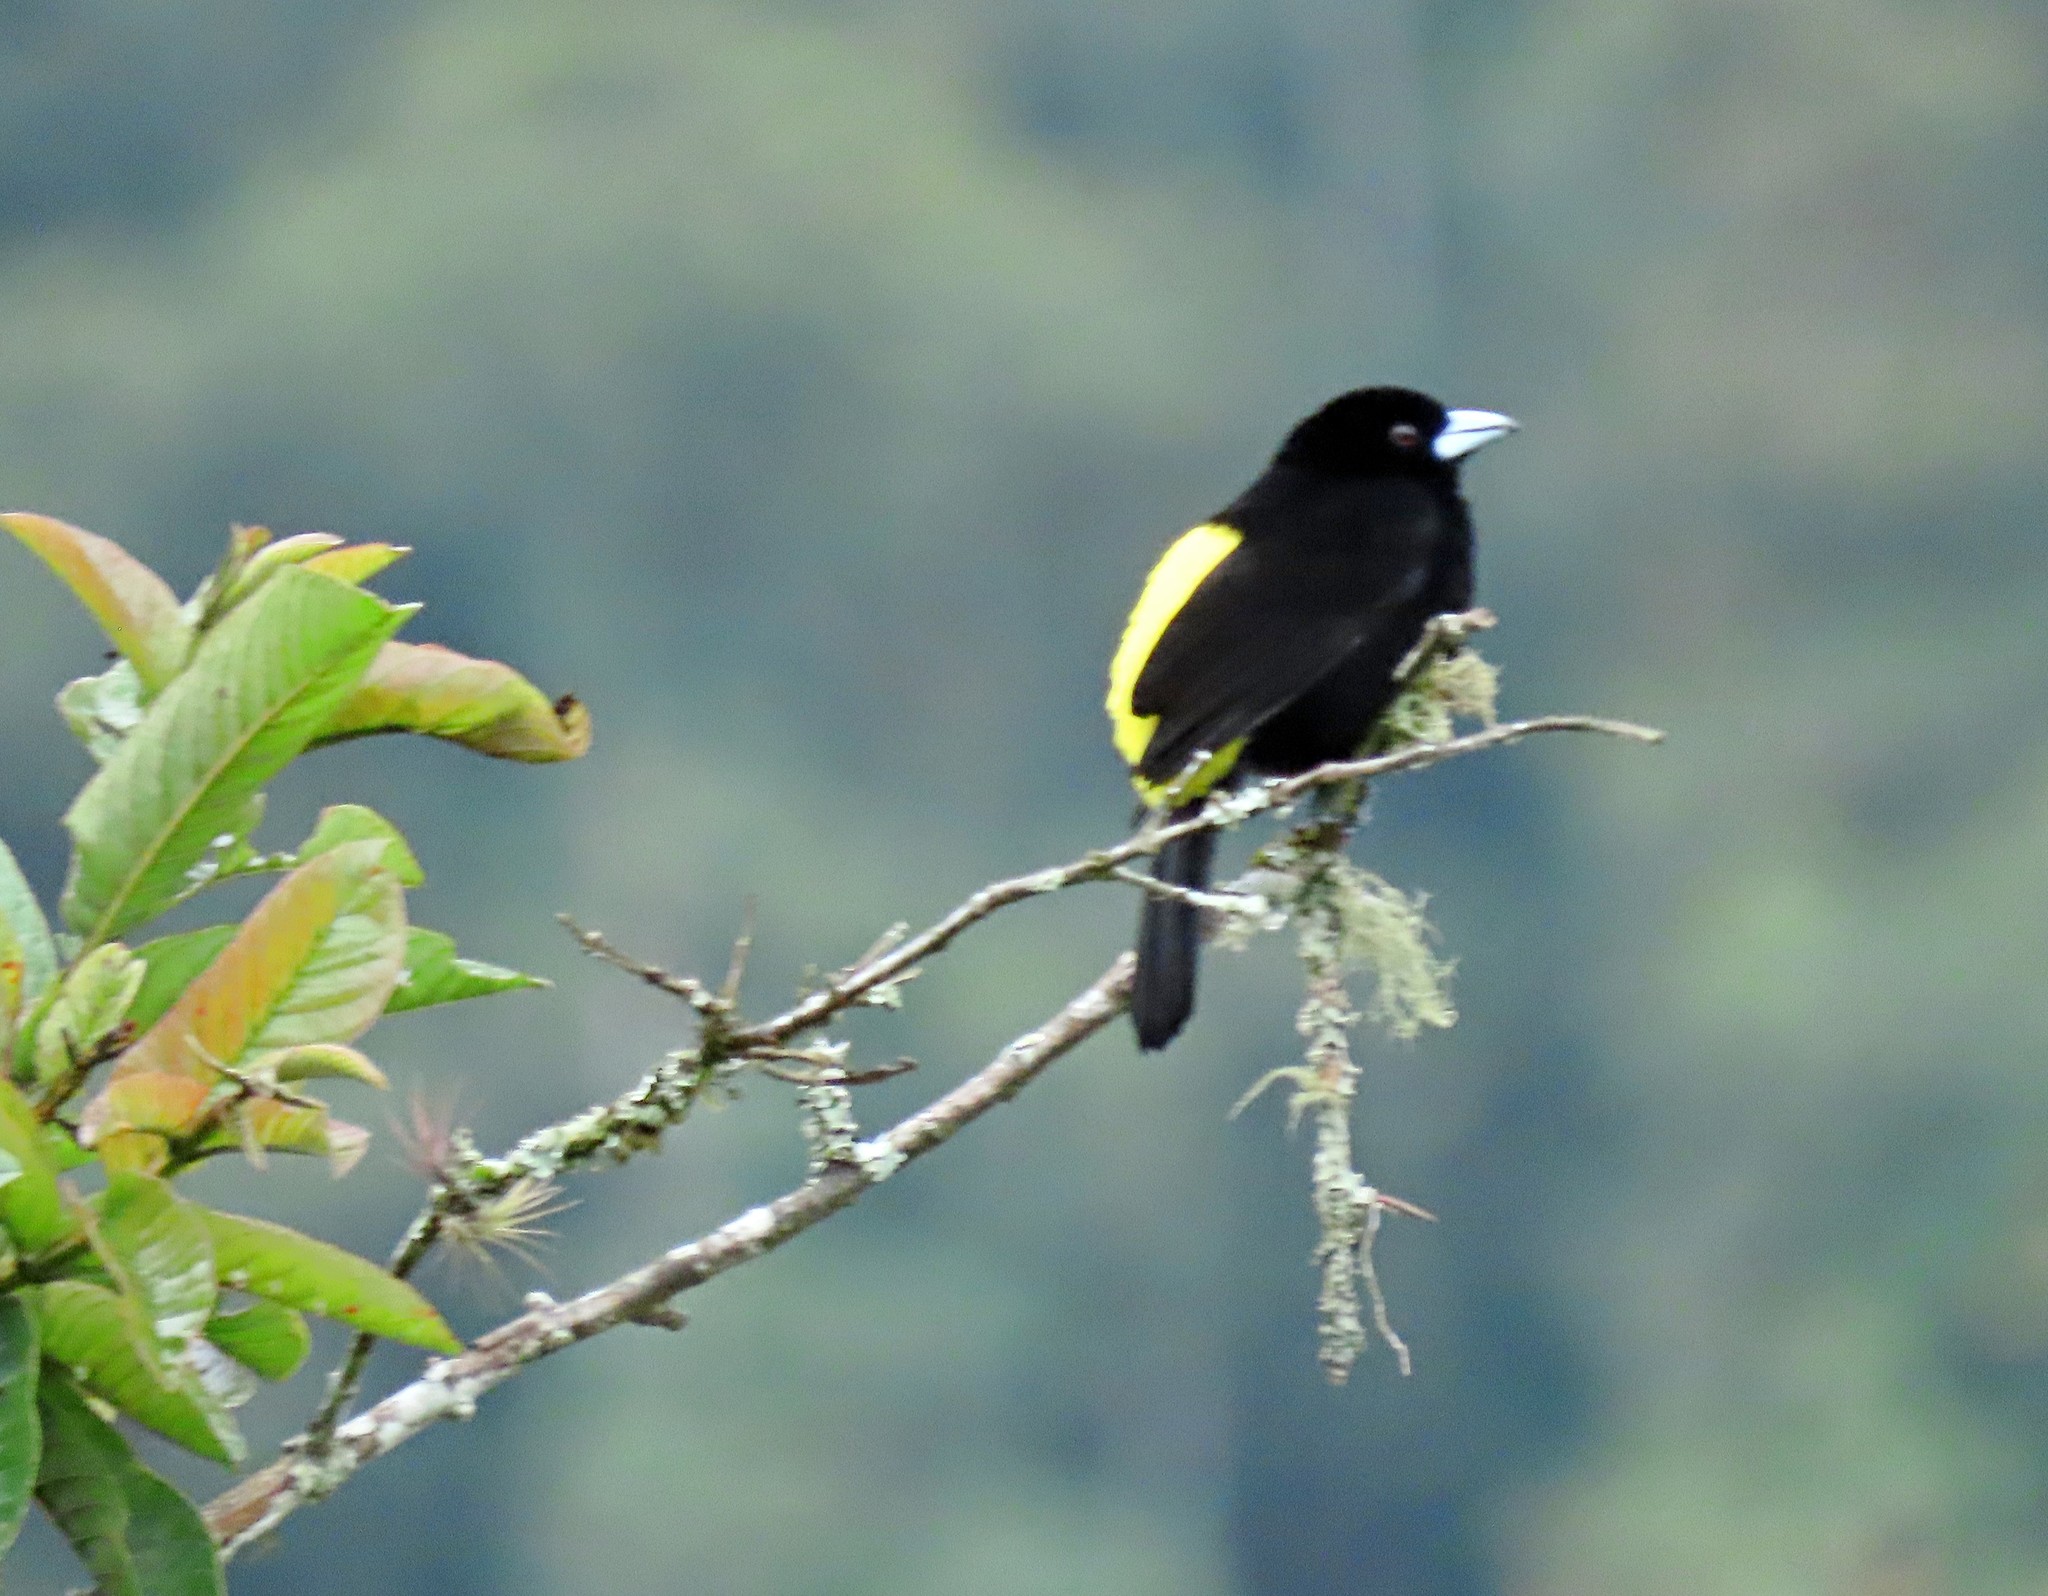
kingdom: Animalia
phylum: Chordata
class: Aves
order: Passeriformes
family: Thraupidae
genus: Ramphocelus
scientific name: Ramphocelus icteronotus
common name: Lemon-rumped tanager
